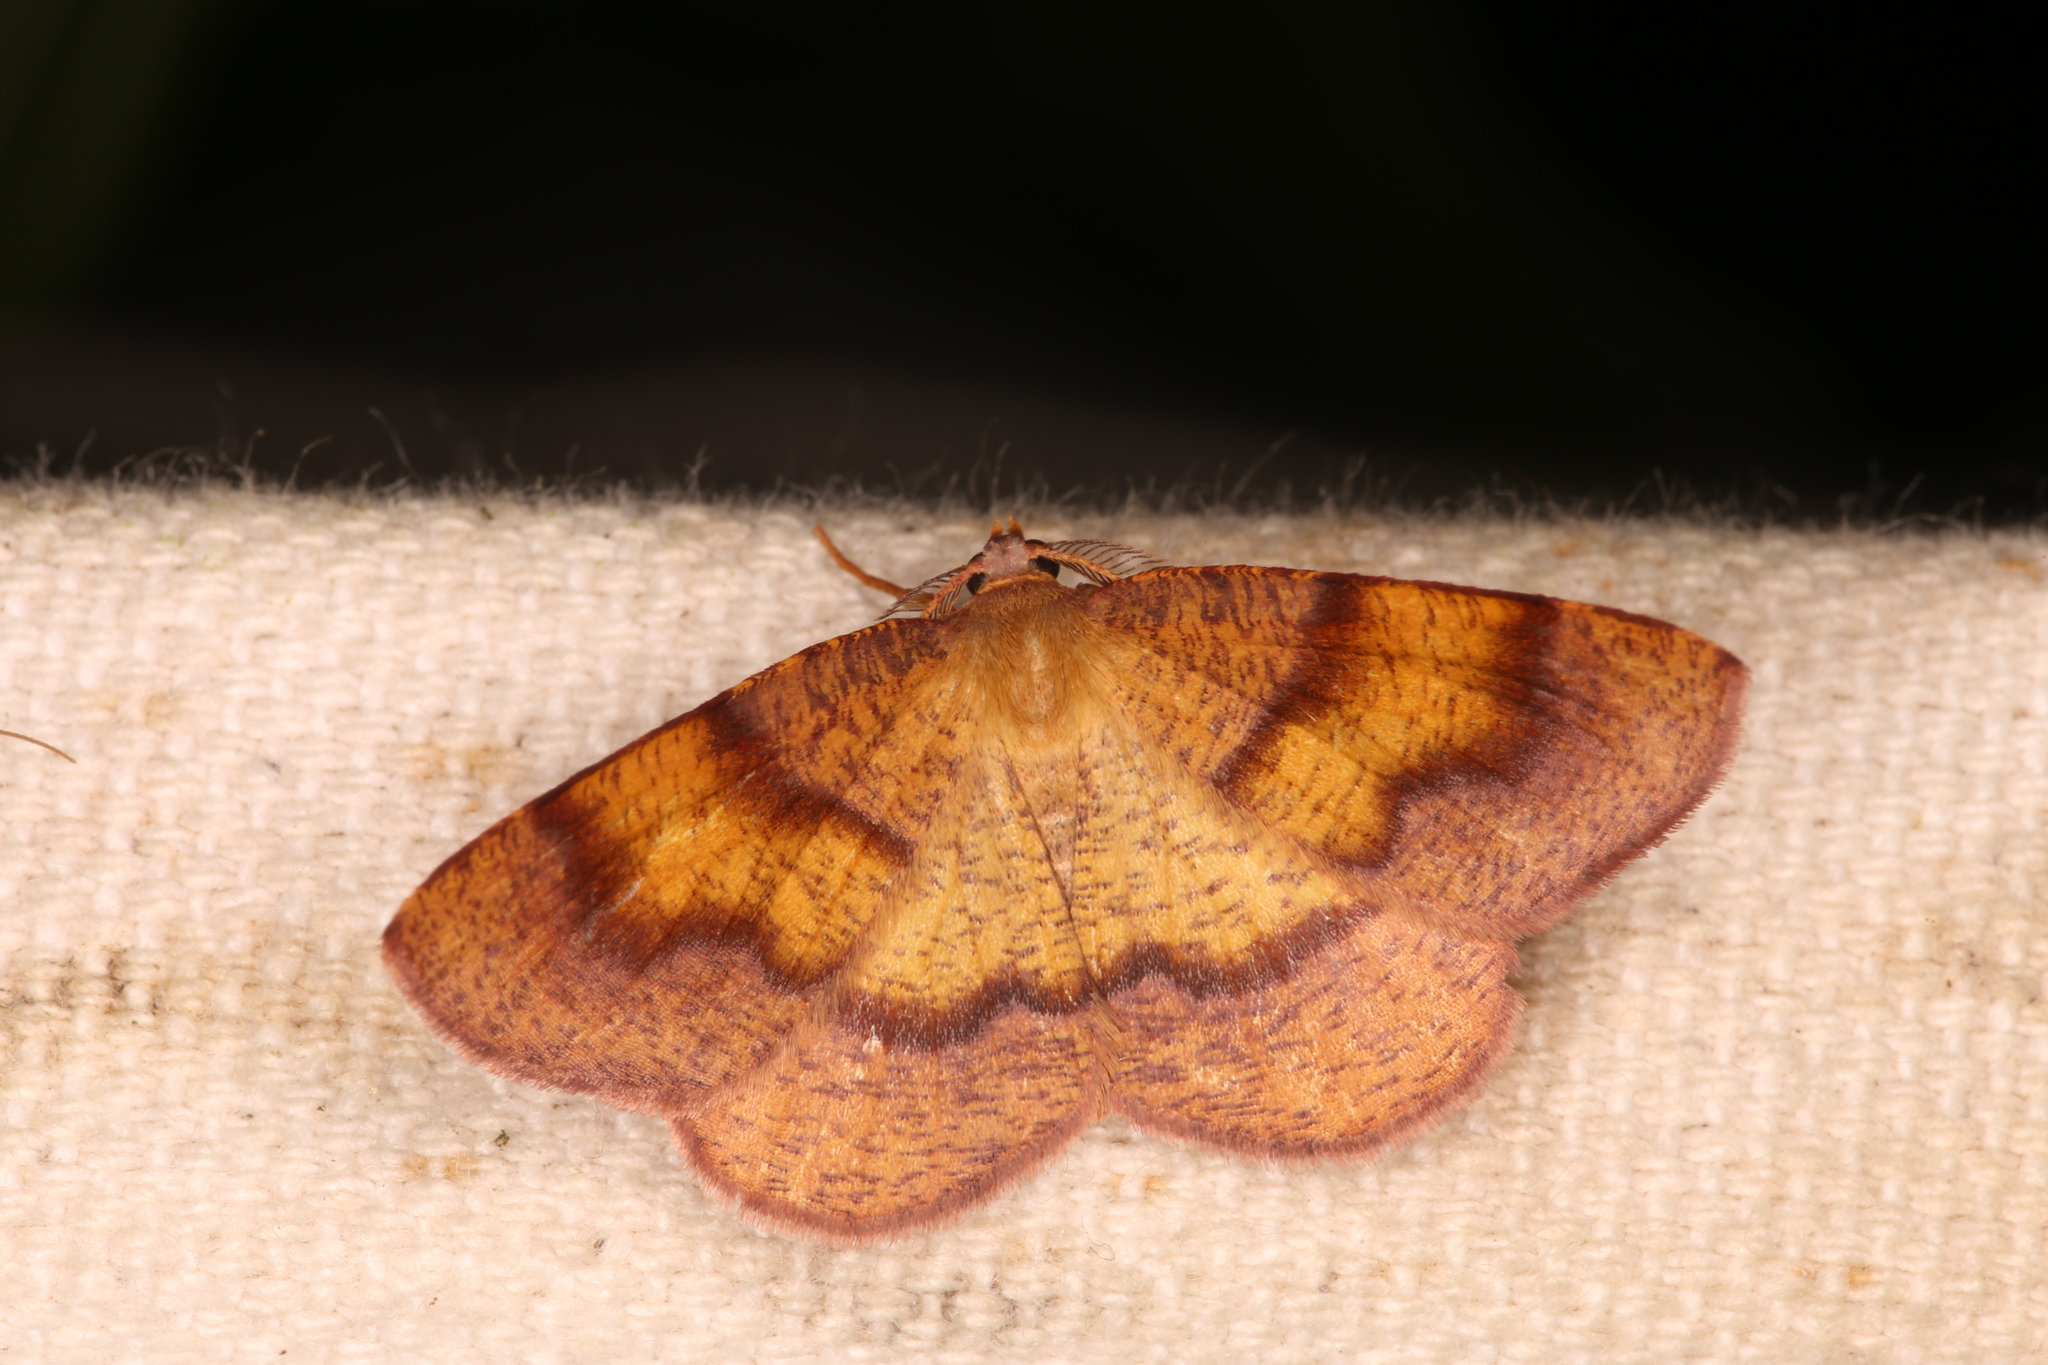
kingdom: Animalia
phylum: Arthropoda
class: Insecta
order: Lepidoptera
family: Geometridae
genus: Plagodis
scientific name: Plagodis pulveraria
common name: Barred umber
